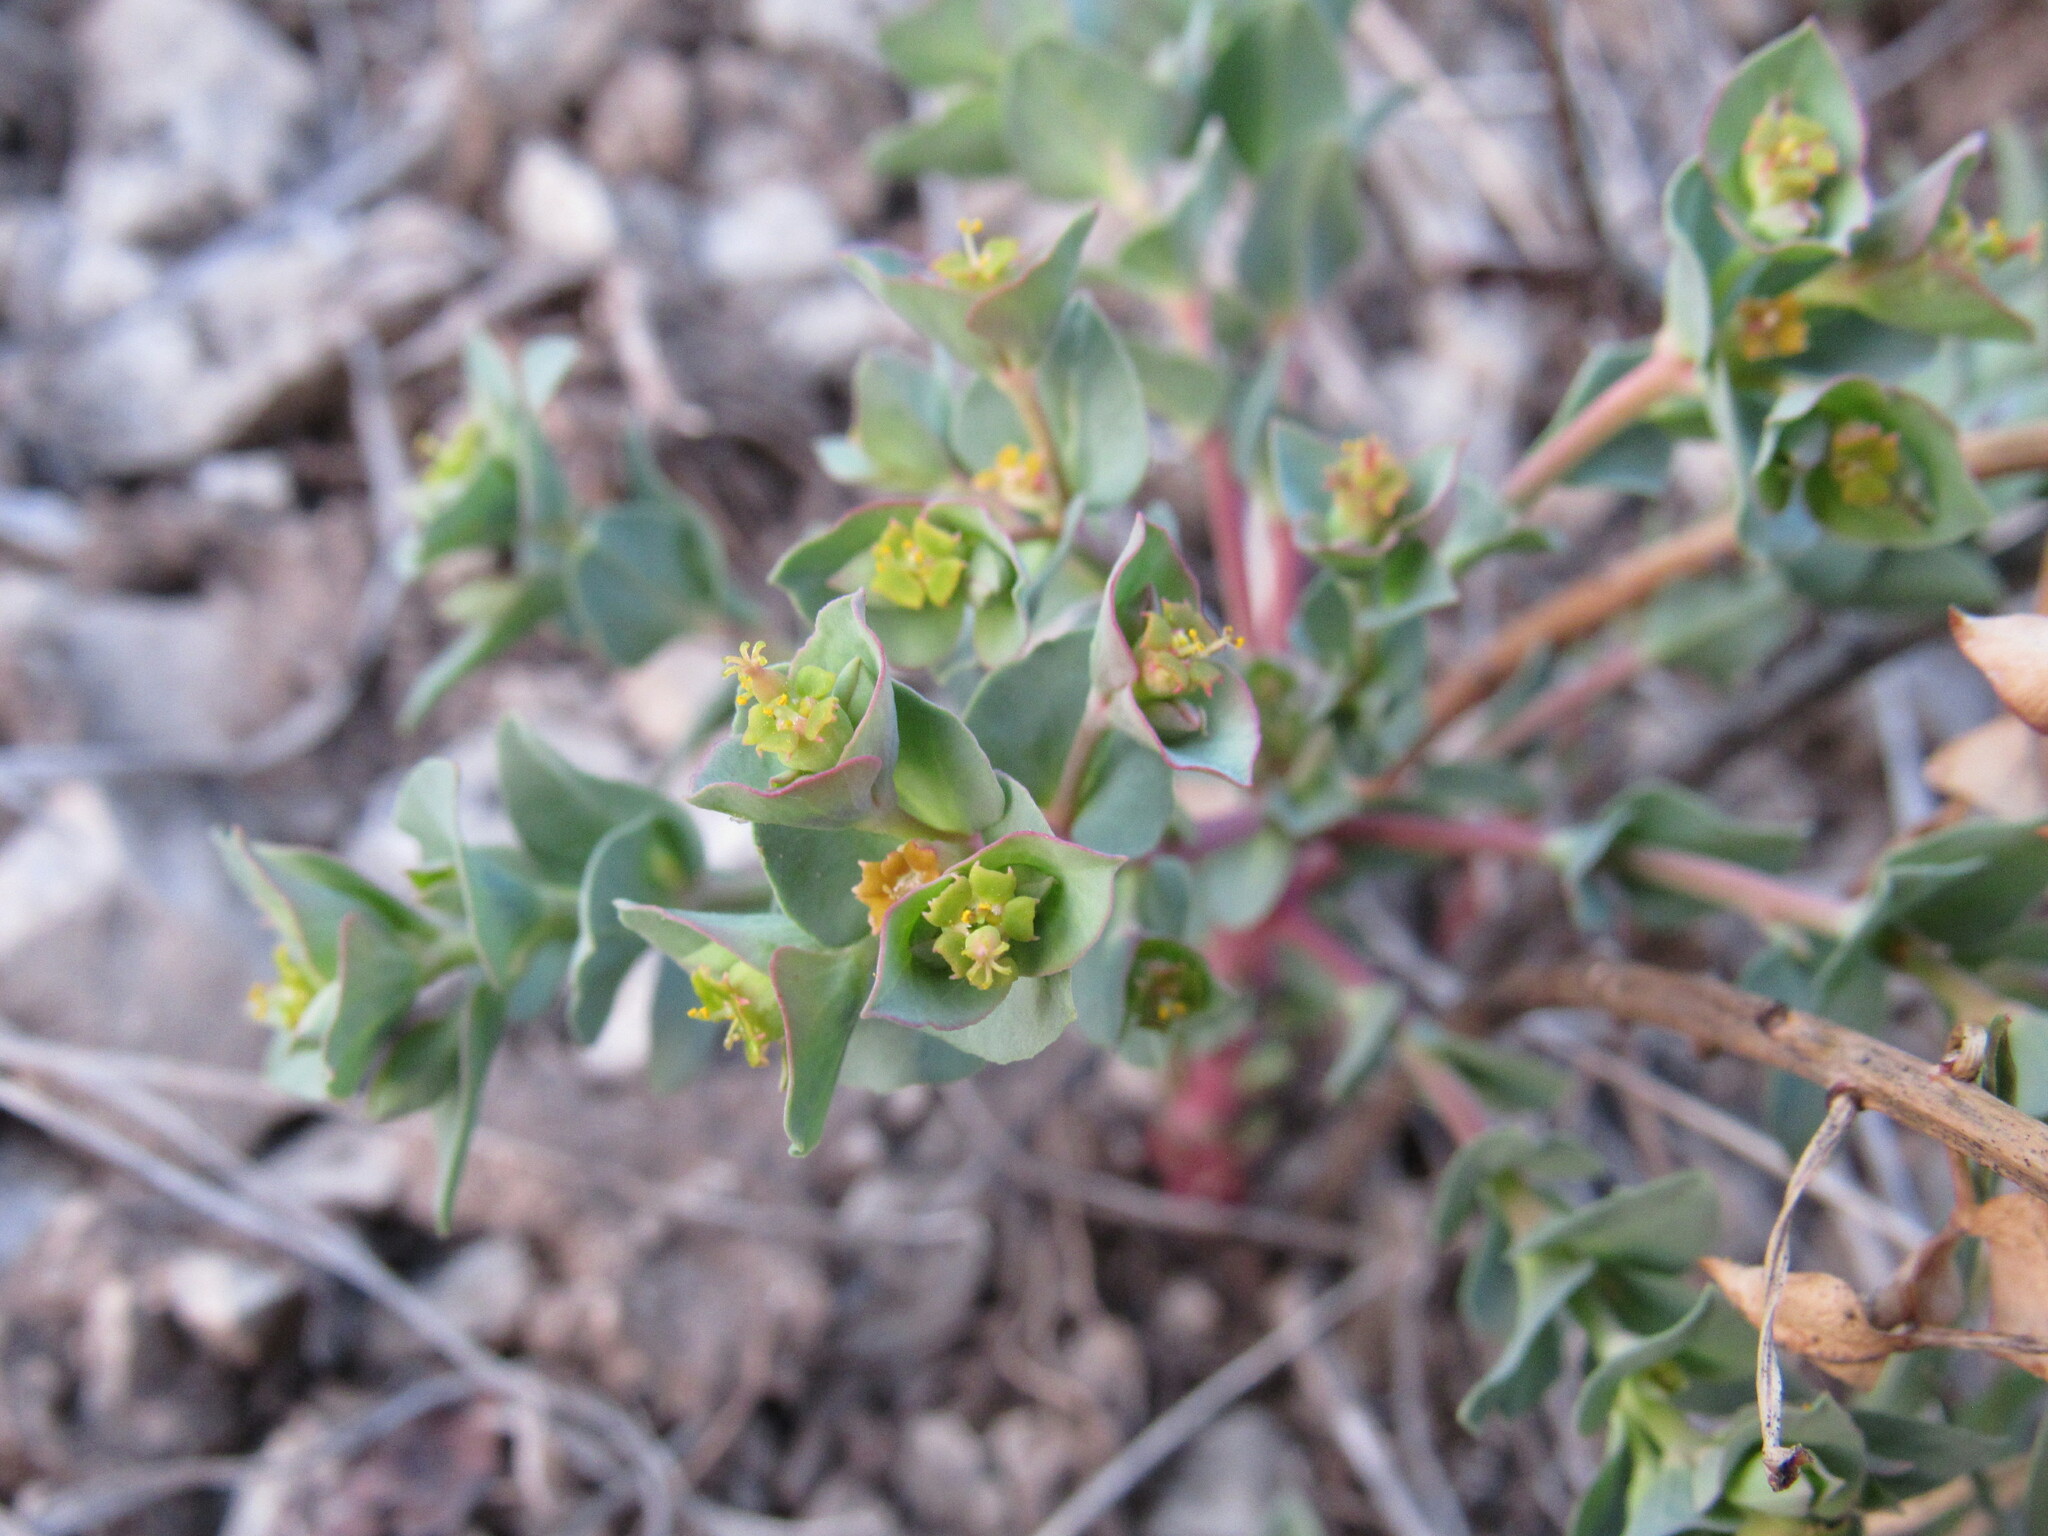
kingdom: Plantae
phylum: Tracheophyta
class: Magnoliopsida
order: Malpighiales
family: Euphorbiaceae
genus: Euphorbia
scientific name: Euphorbia brachycera
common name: Shorthorn spurge
